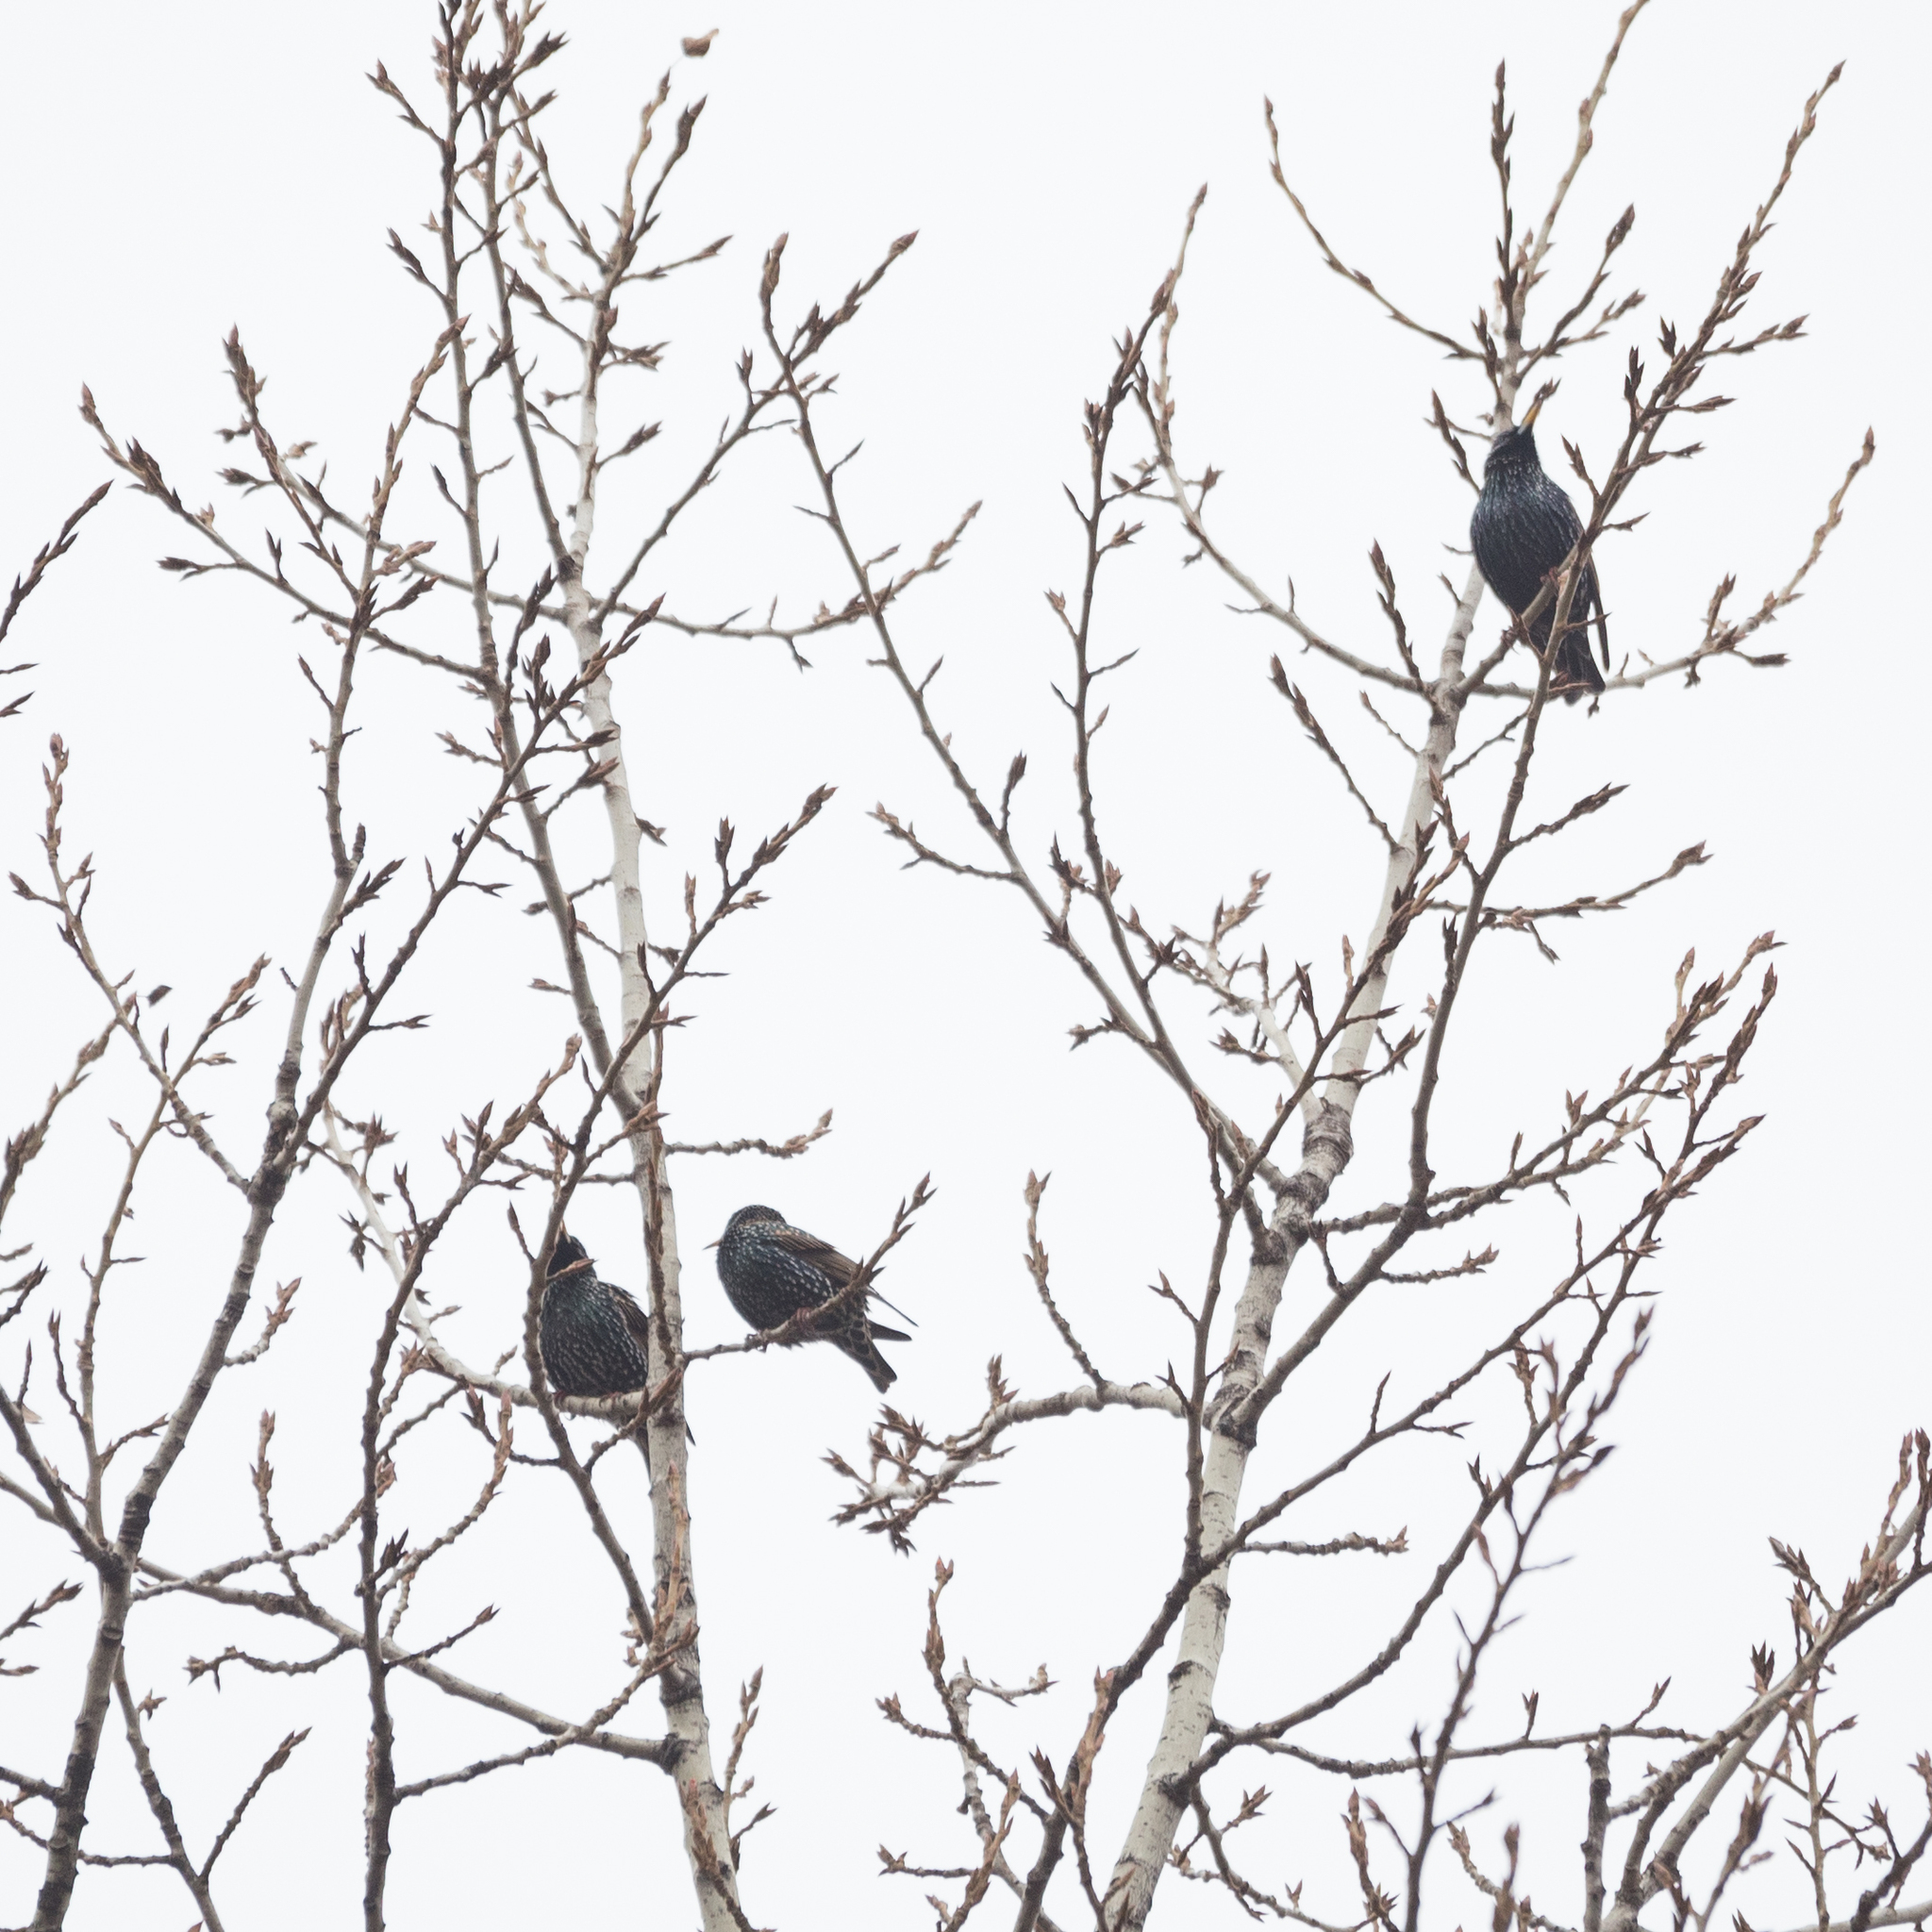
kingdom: Animalia
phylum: Chordata
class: Aves
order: Passeriformes
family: Sturnidae
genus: Sturnus
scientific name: Sturnus vulgaris
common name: Common starling
